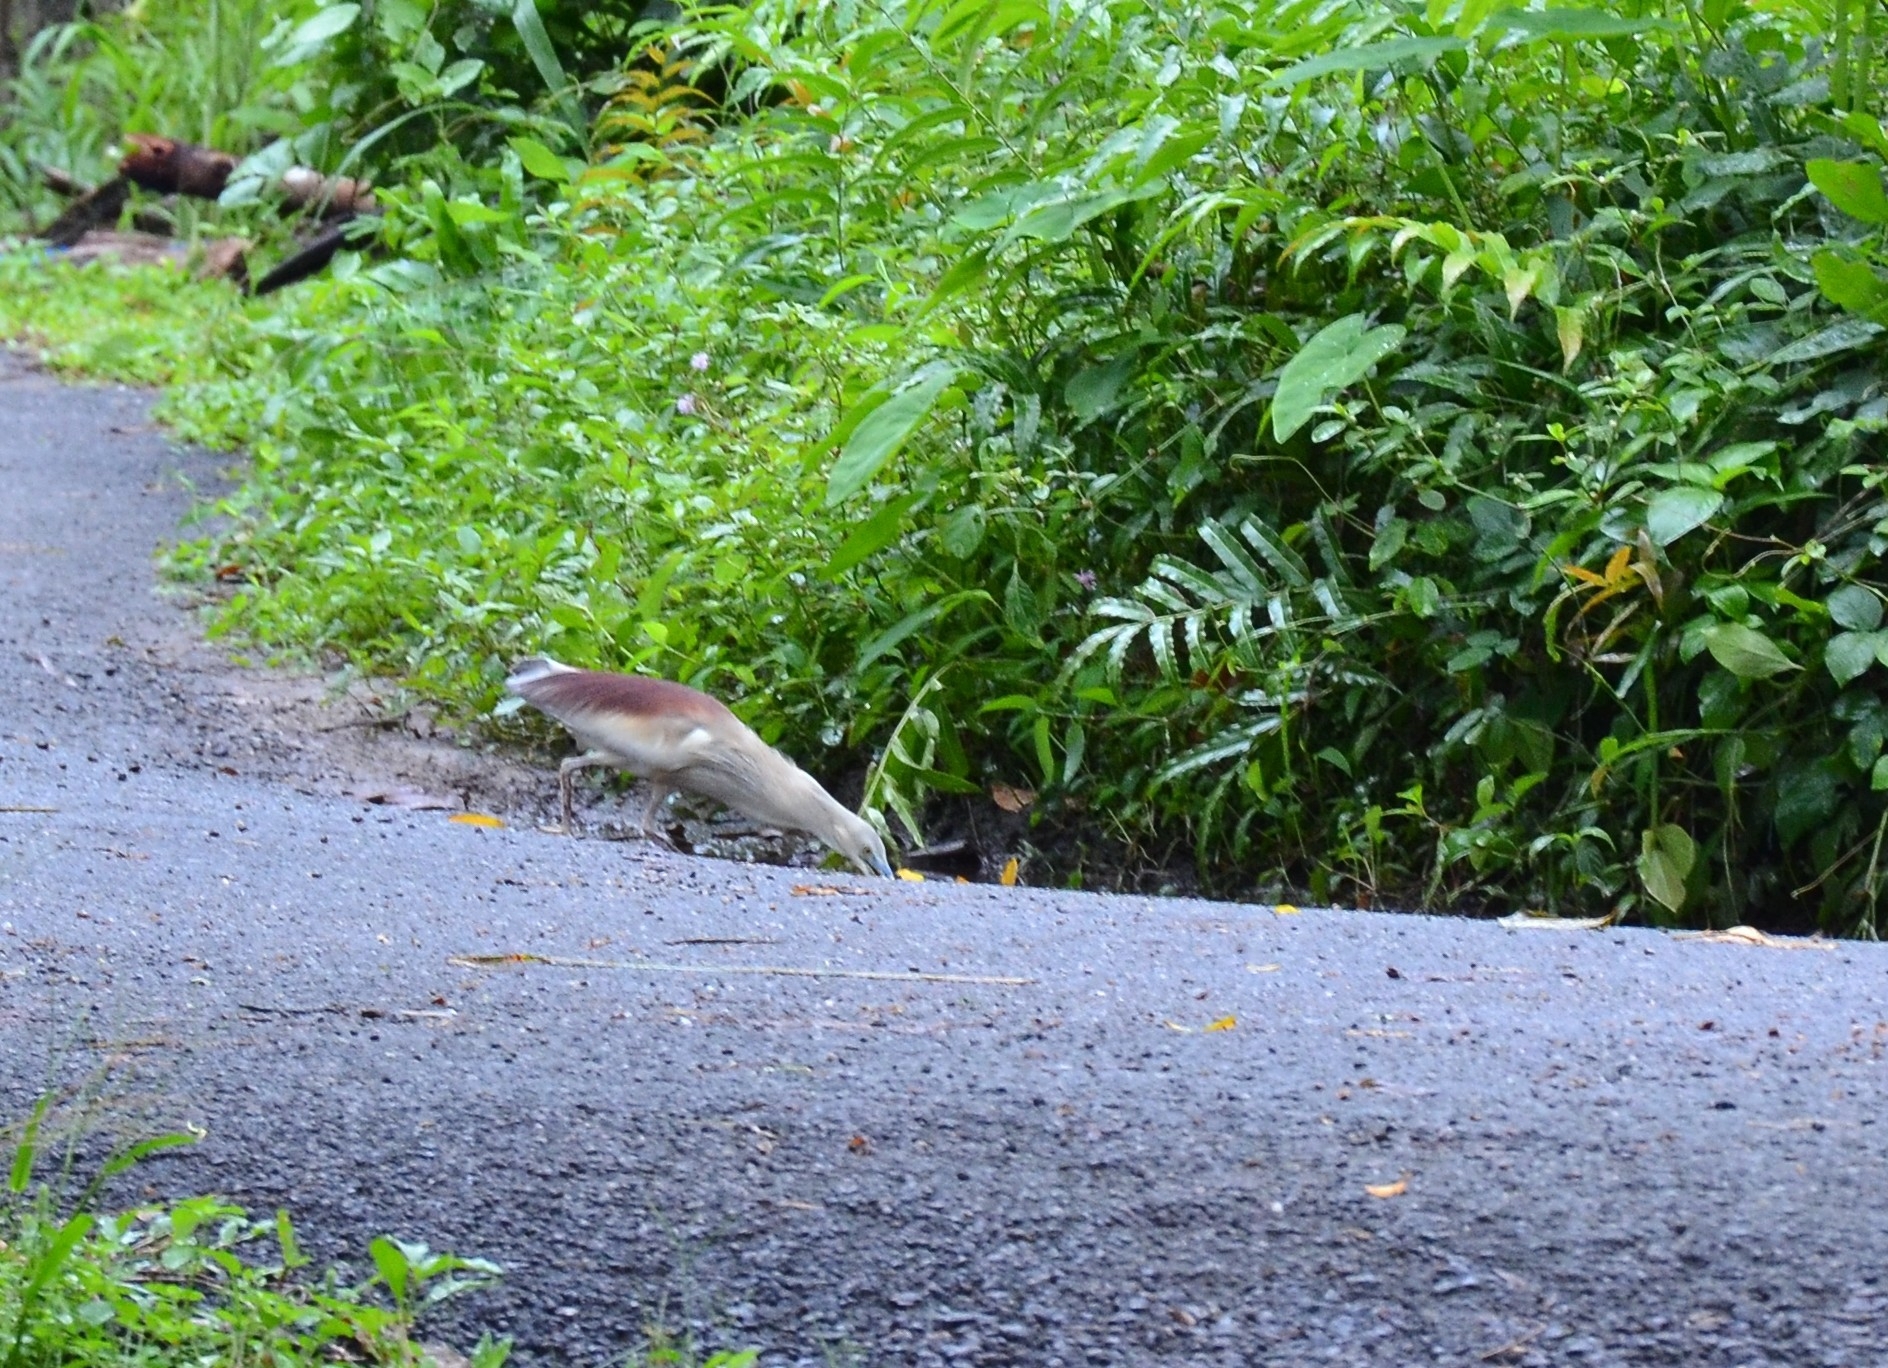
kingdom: Animalia
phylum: Chordata
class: Aves
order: Pelecaniformes
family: Ardeidae
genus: Ardeola
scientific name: Ardeola grayii
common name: Indian pond heron
